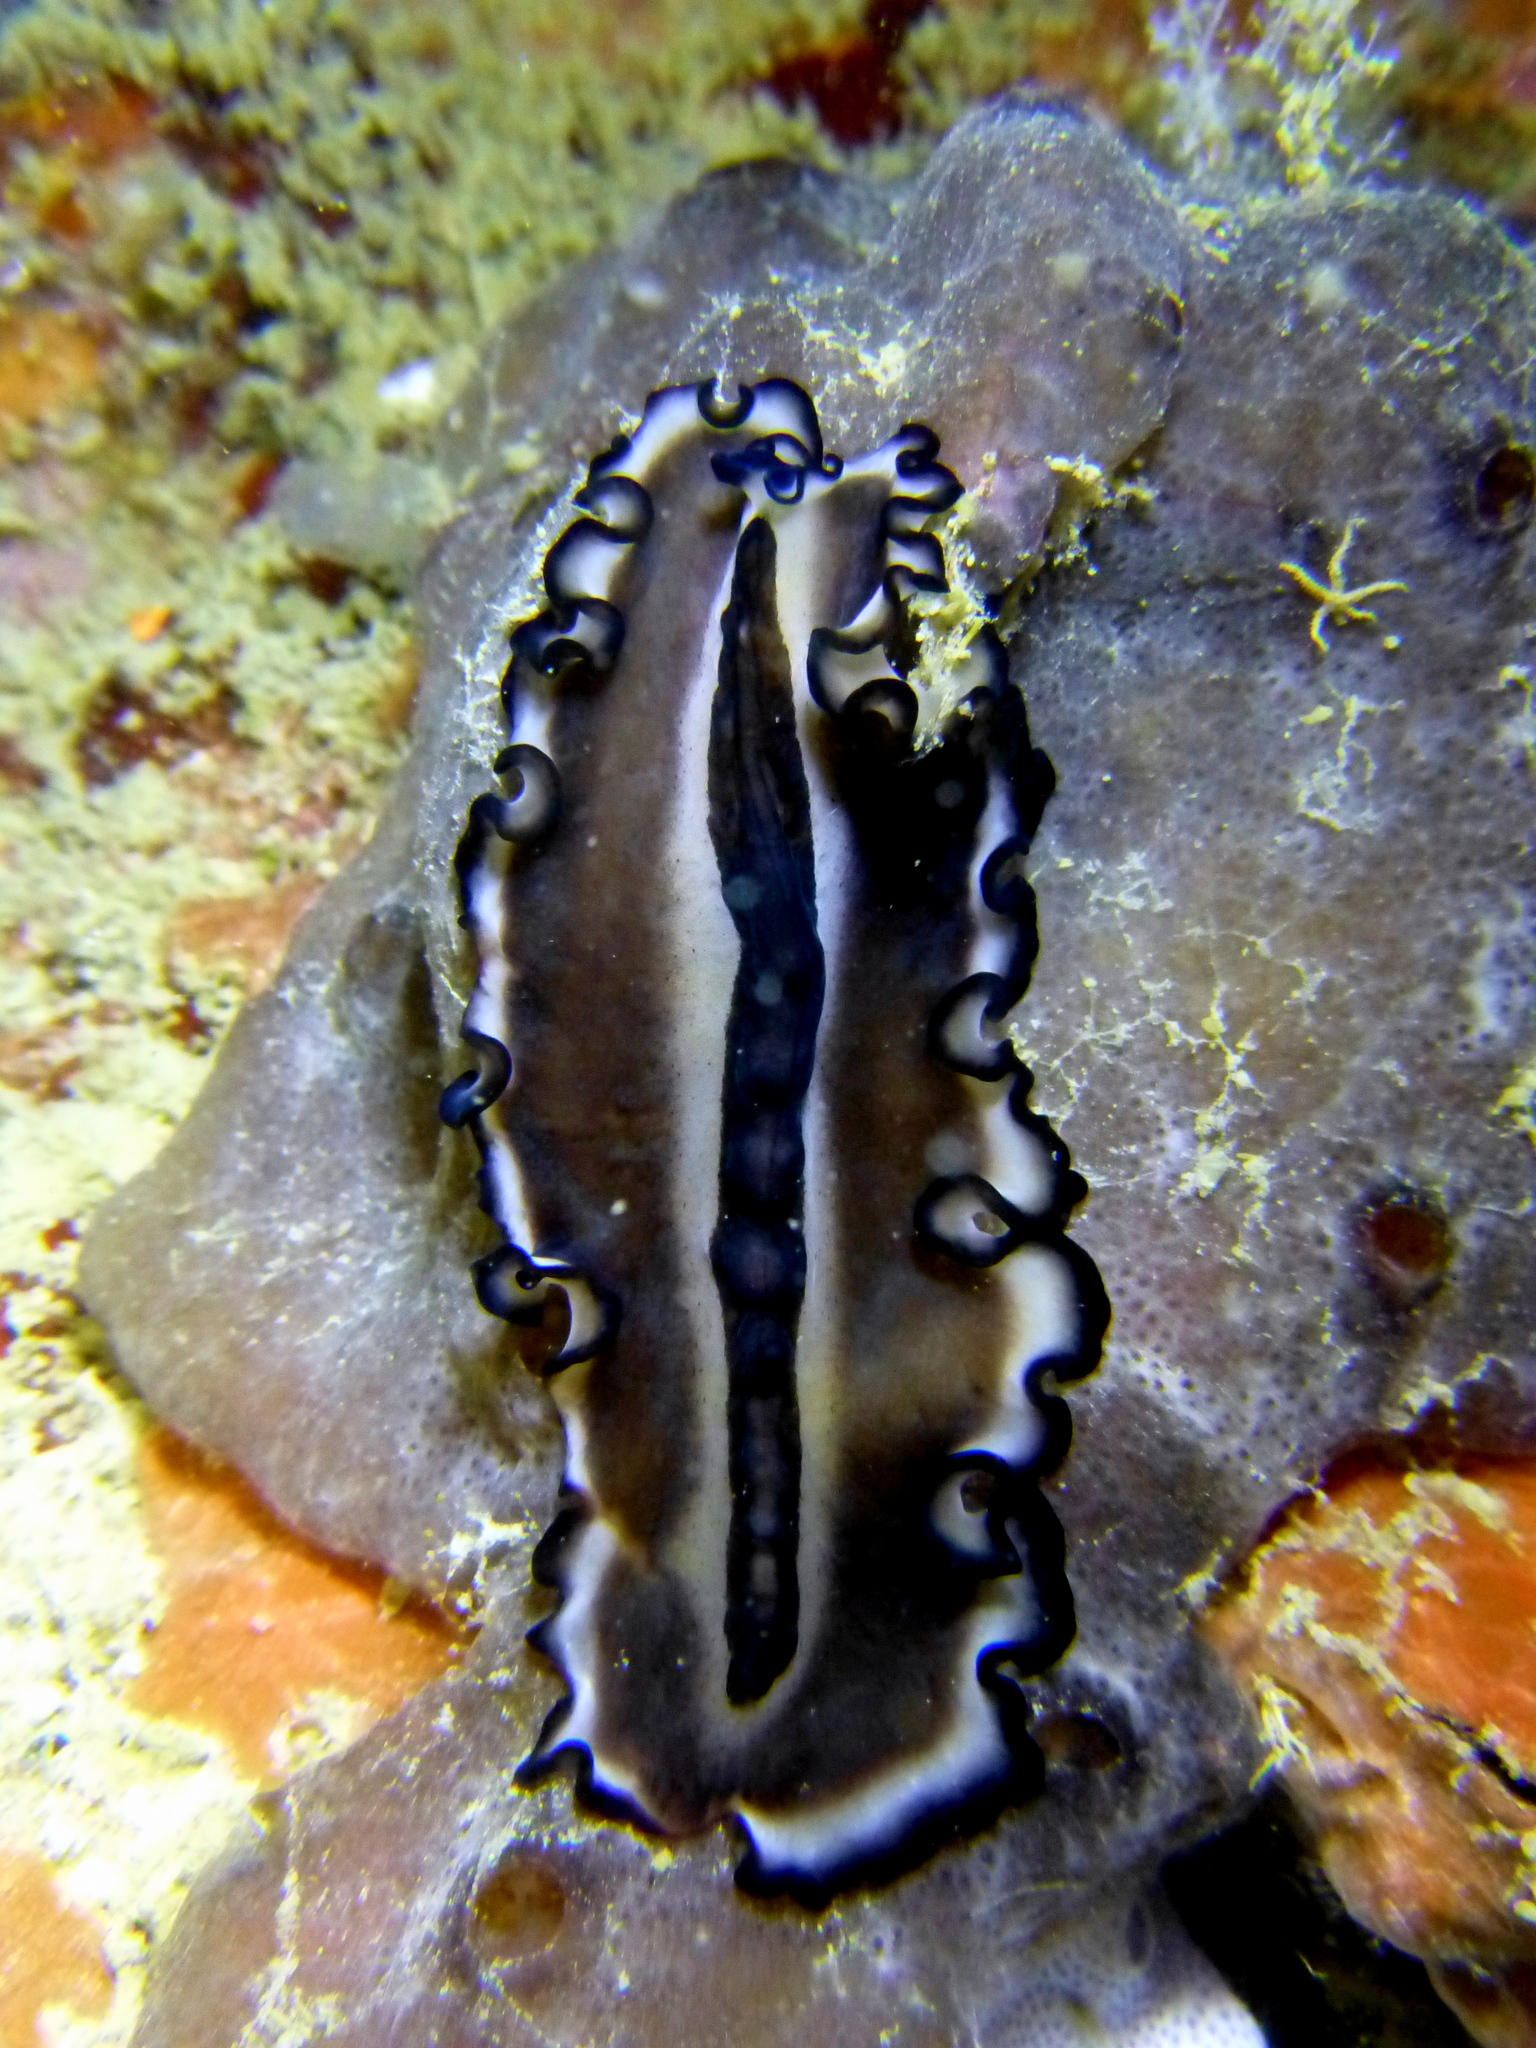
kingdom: Animalia
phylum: Platyhelminthes
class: Turbellaria
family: Pseudocerotidae
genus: Nymphozoon
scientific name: Nymphozoon bayeri
